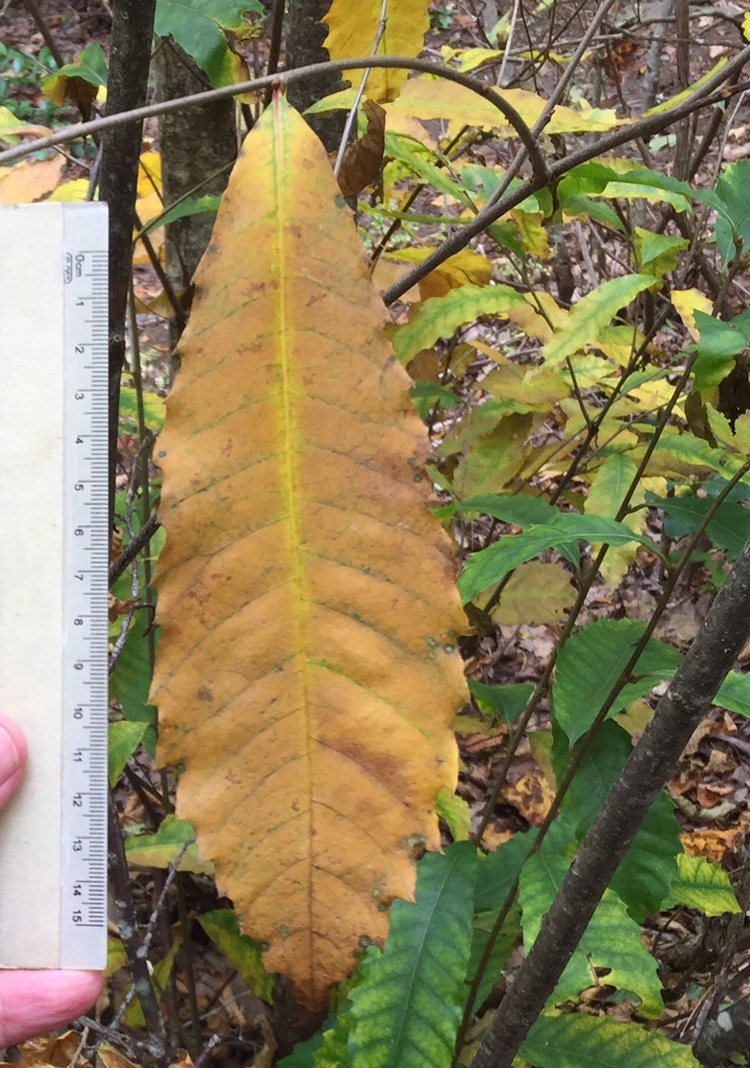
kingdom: Plantae
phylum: Tracheophyta
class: Magnoliopsida
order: Fagales
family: Fagaceae
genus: Castanea
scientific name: Castanea dentata
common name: American chestnut
